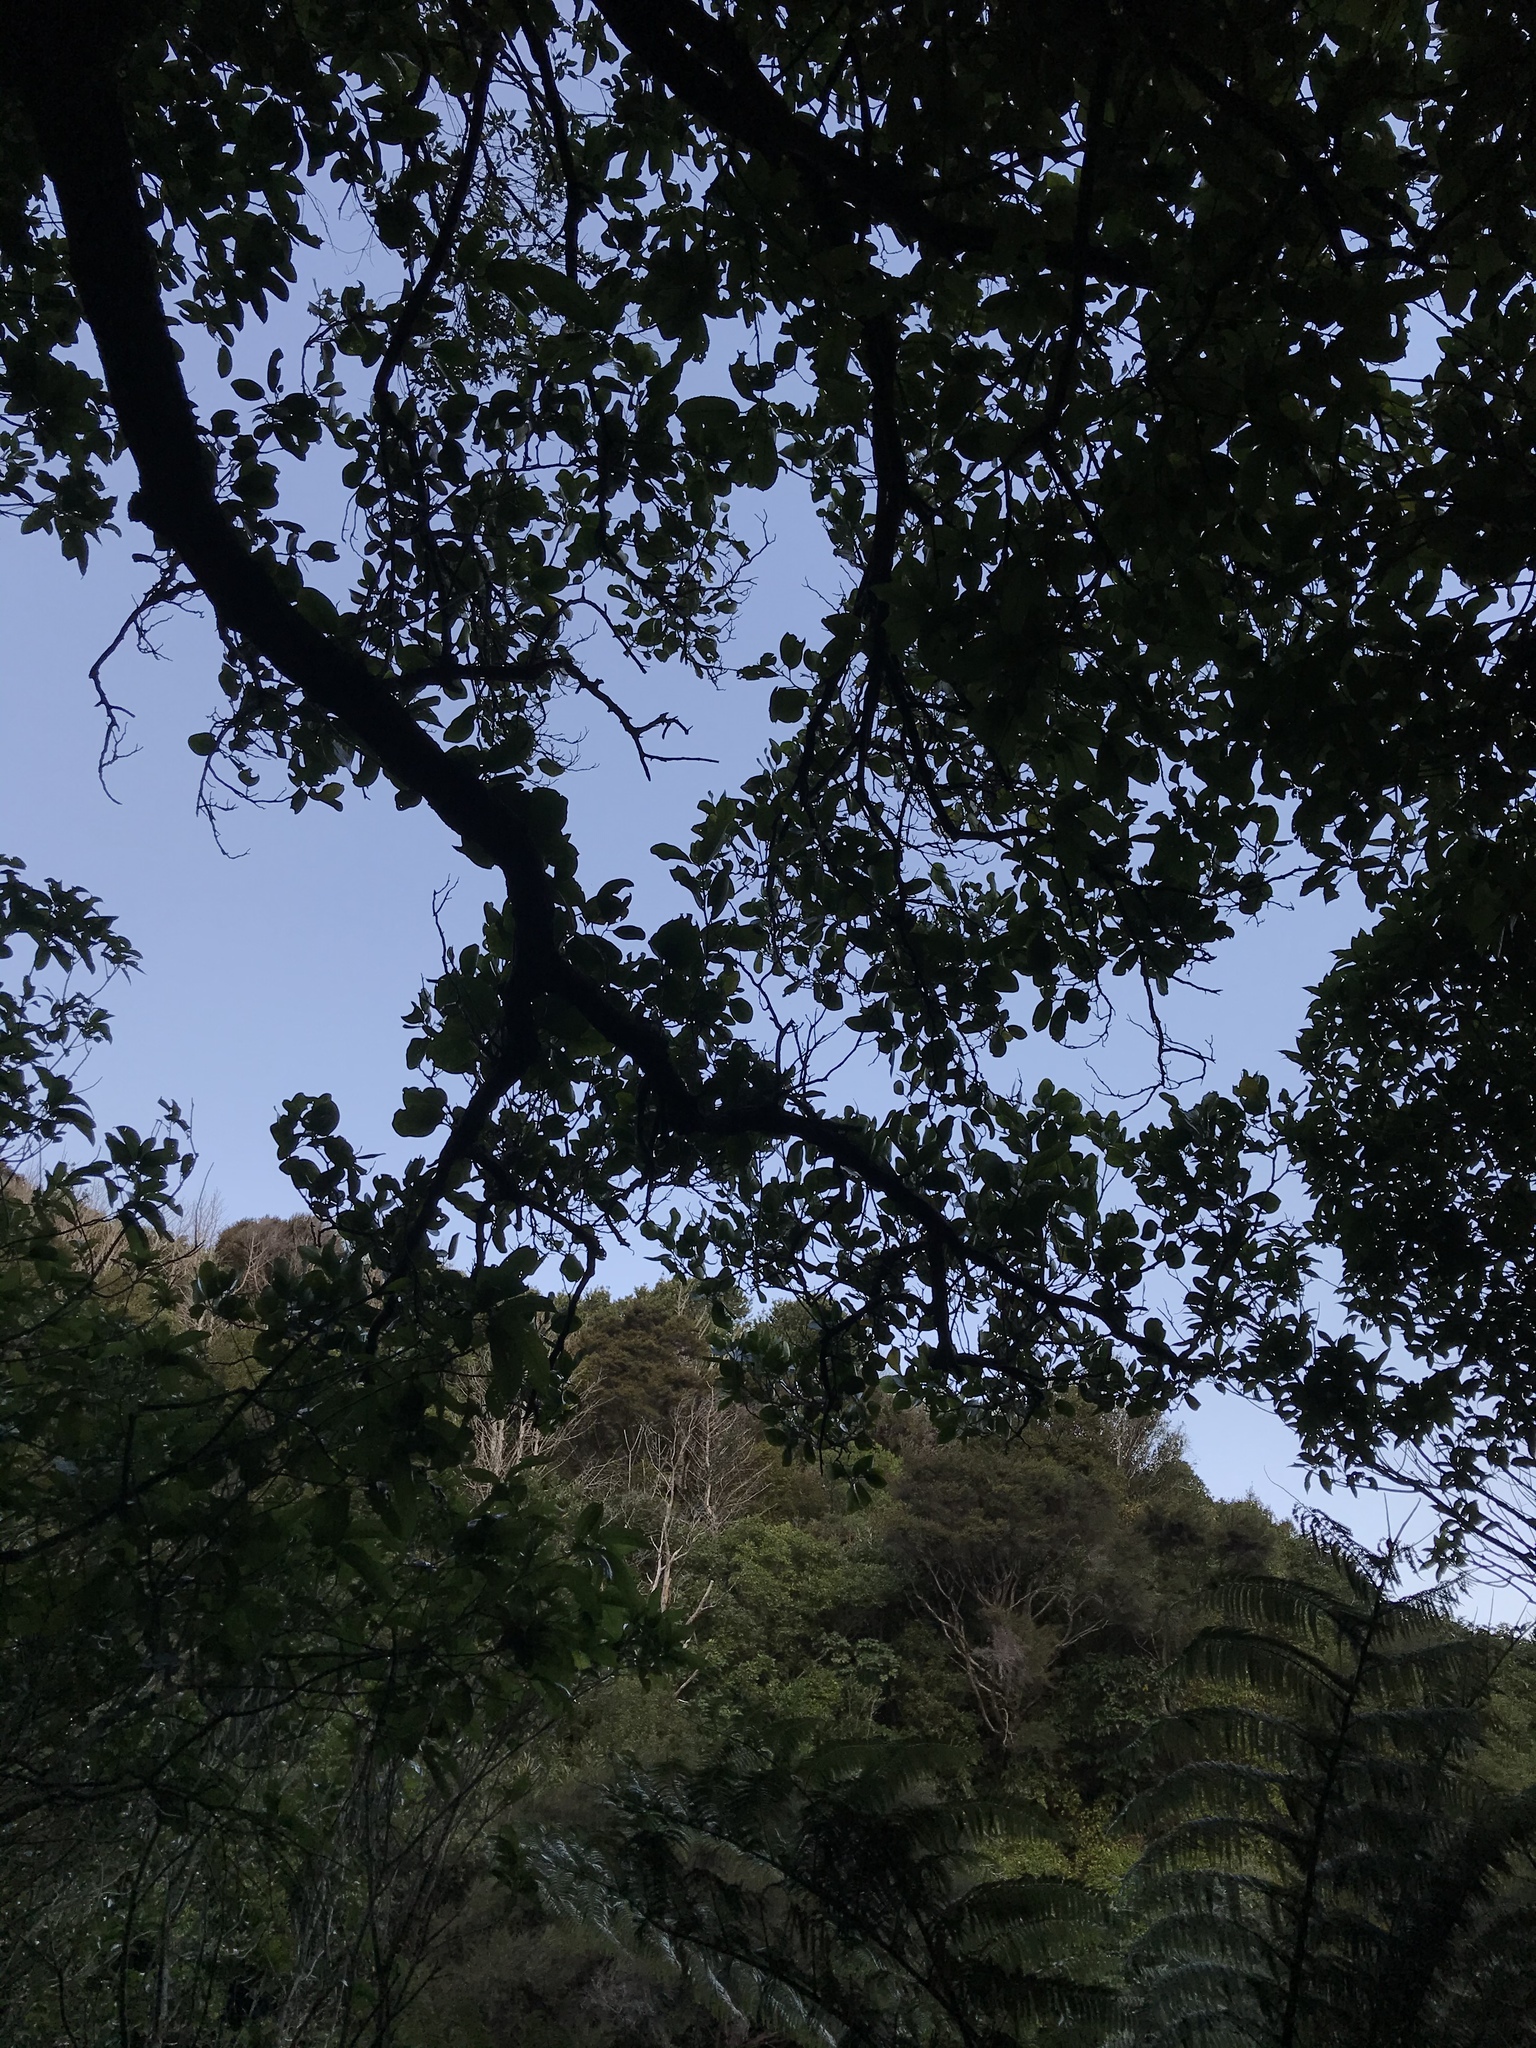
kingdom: Plantae
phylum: Tracheophyta
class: Magnoliopsida
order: Apiales
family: Griseliniaceae
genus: Griselinia
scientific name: Griselinia lucida
